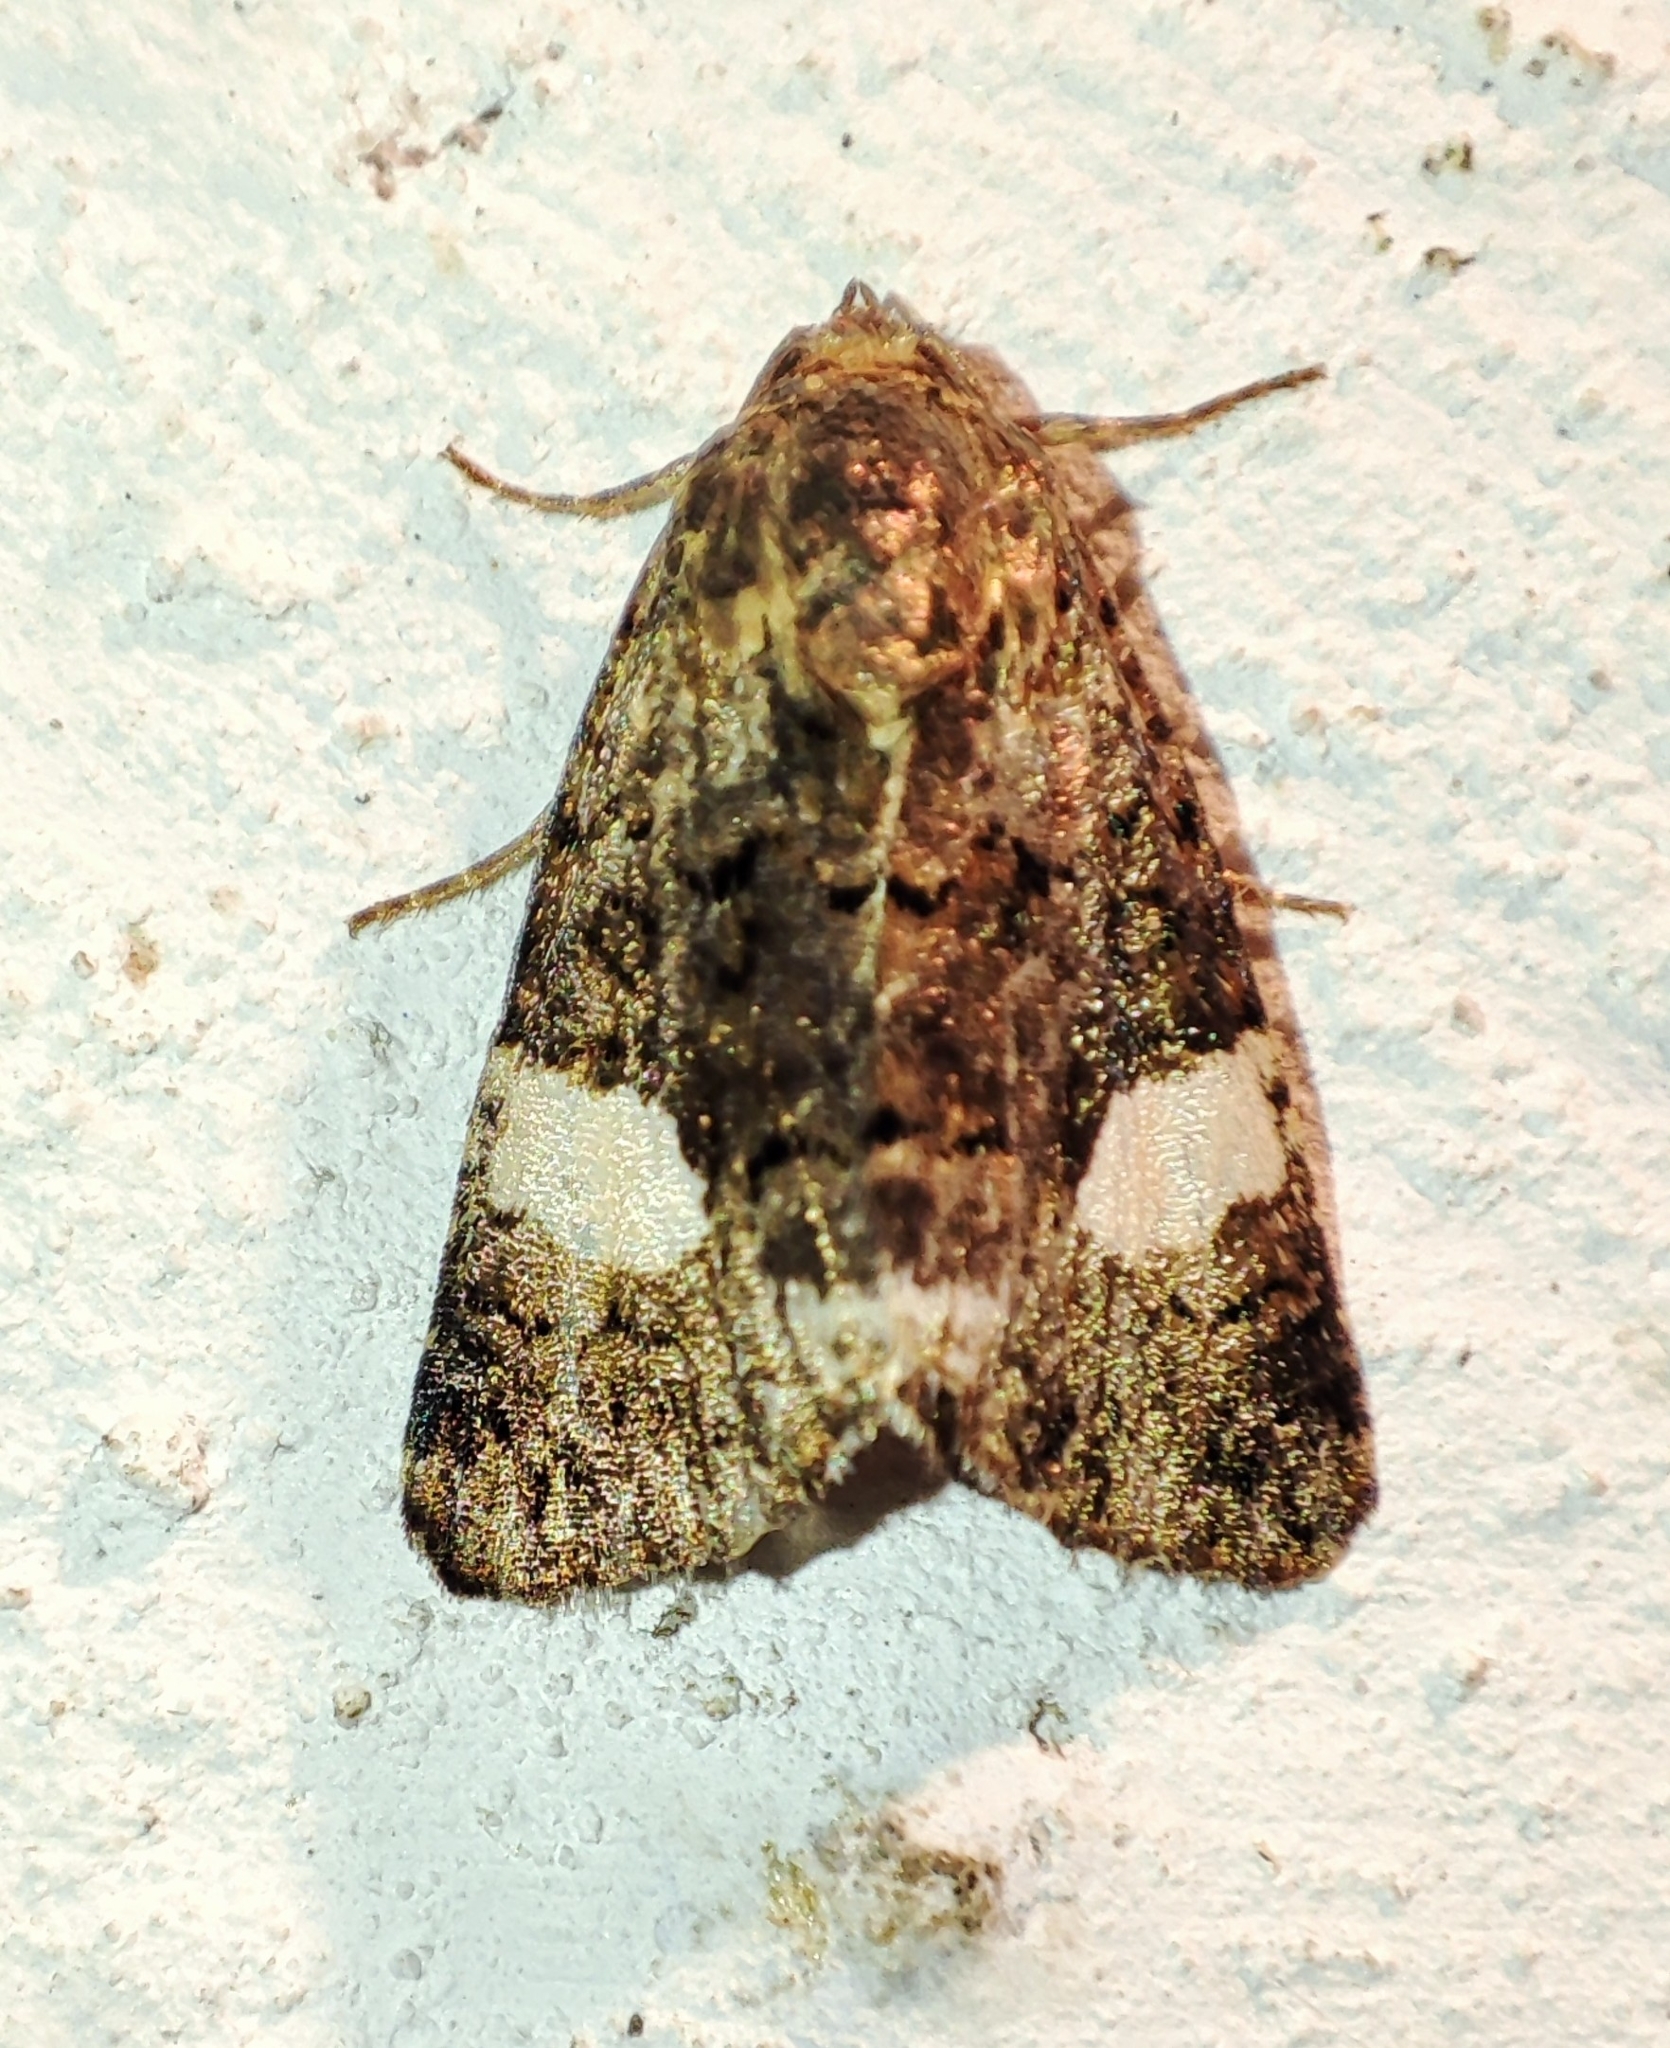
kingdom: Animalia
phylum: Arthropoda
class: Insecta
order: Lepidoptera
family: Erebidae
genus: Tyta
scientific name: Tyta luctuosa
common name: Four-spotted
